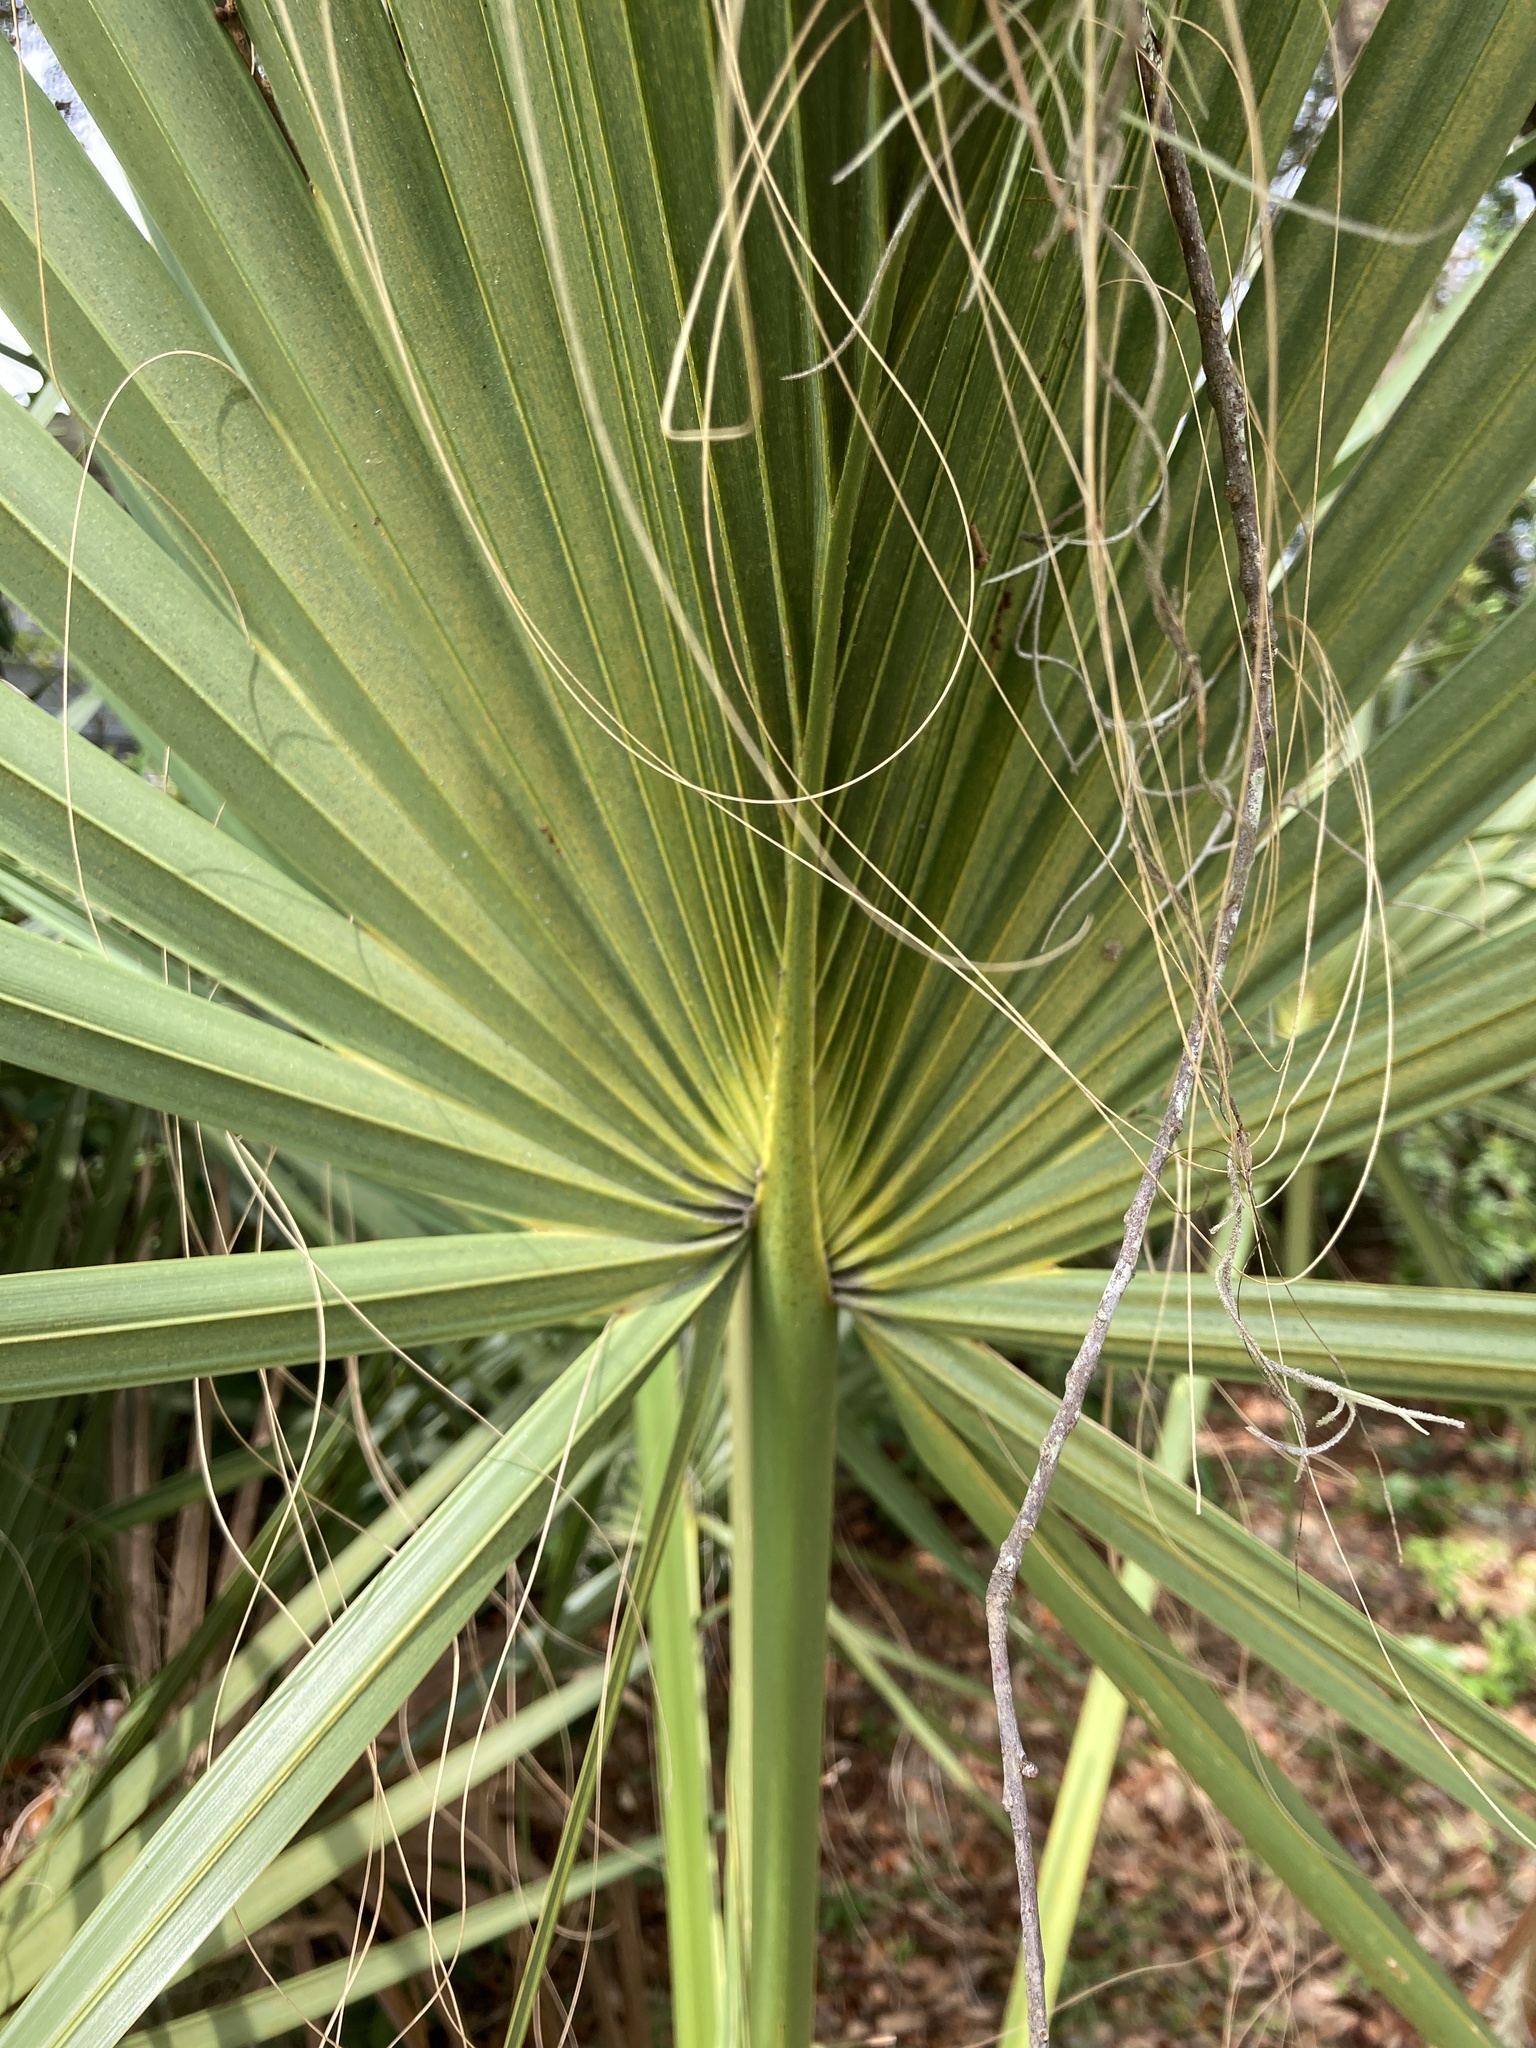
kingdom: Plantae
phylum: Tracheophyta
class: Liliopsida
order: Arecales
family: Arecaceae
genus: Sabal
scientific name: Sabal palmetto
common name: Blue palmetto
